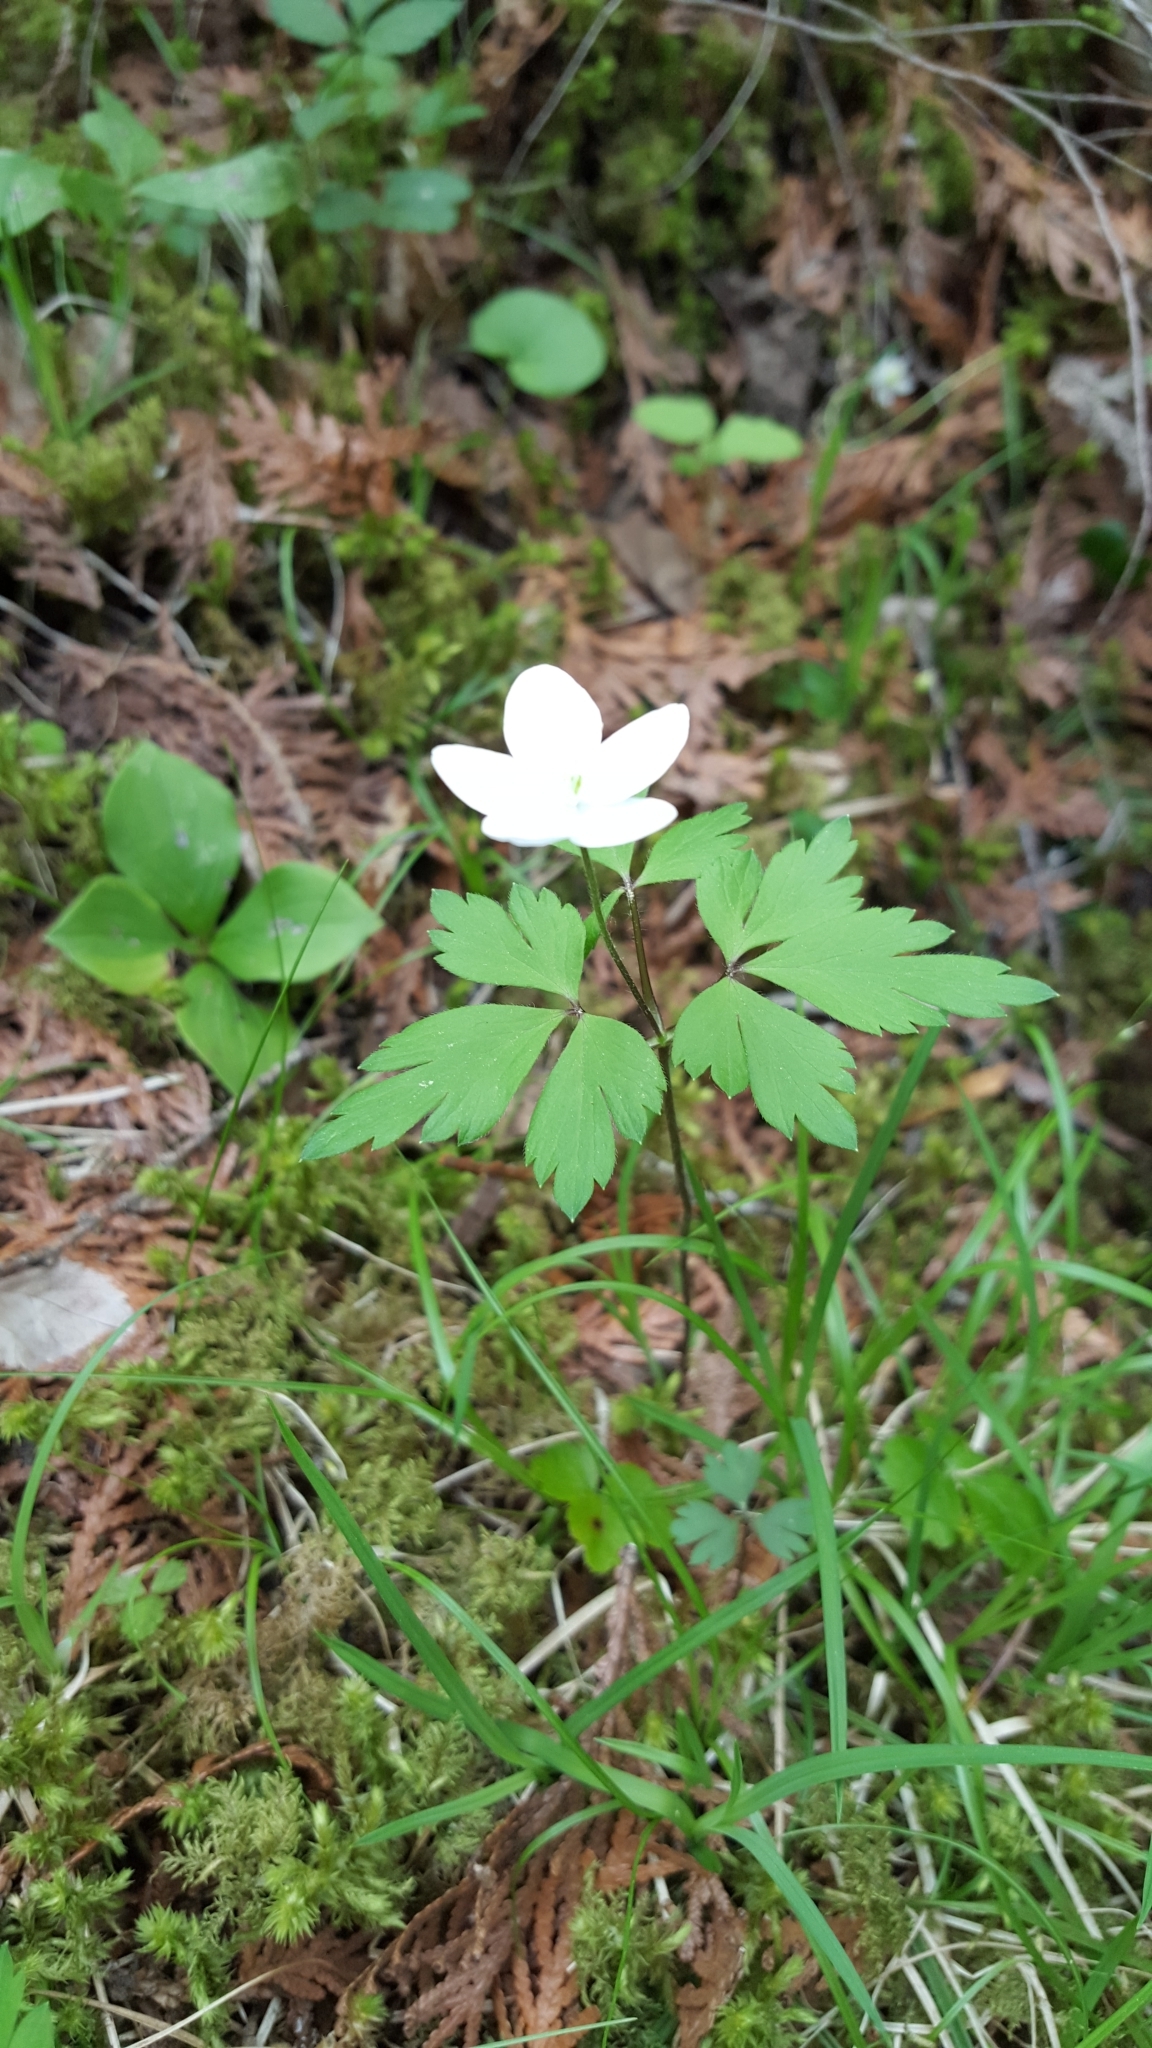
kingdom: Plantae
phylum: Tracheophyta
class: Magnoliopsida
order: Ranunculales
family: Ranunculaceae
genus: Anemone
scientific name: Anemone quinquefolia
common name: Wood anemone
